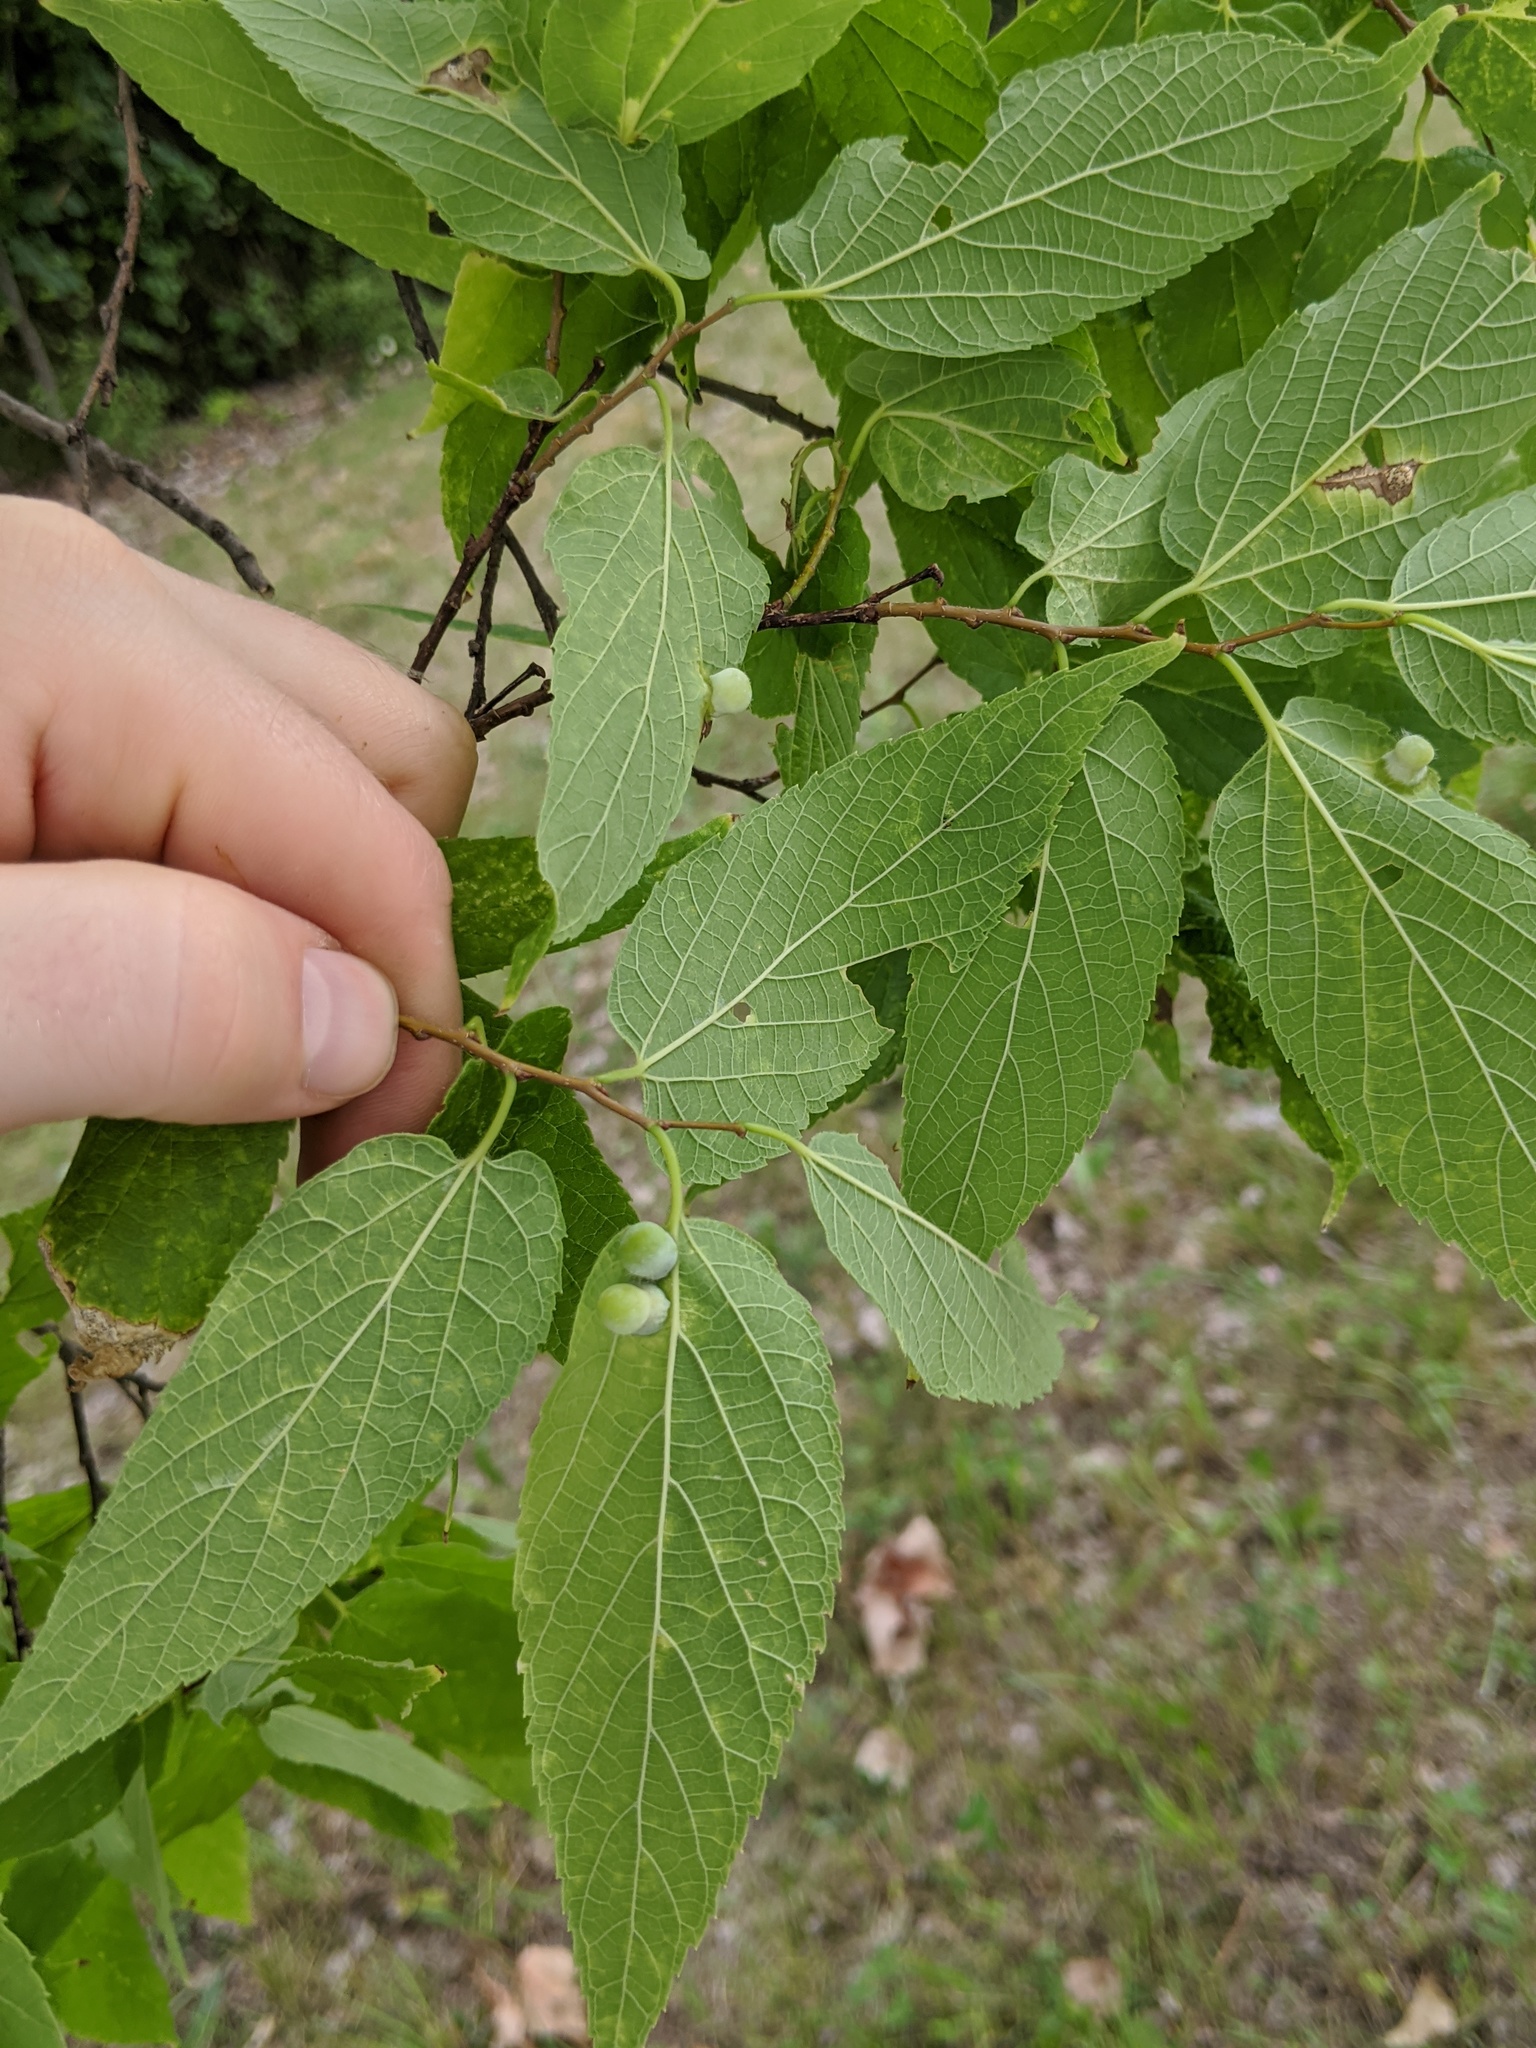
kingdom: Animalia
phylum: Arthropoda
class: Insecta
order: Hemiptera
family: Aphalaridae
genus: Pachypsylla
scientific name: Pachypsylla celtidismamma
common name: Hackberry nipplegall psyllid
